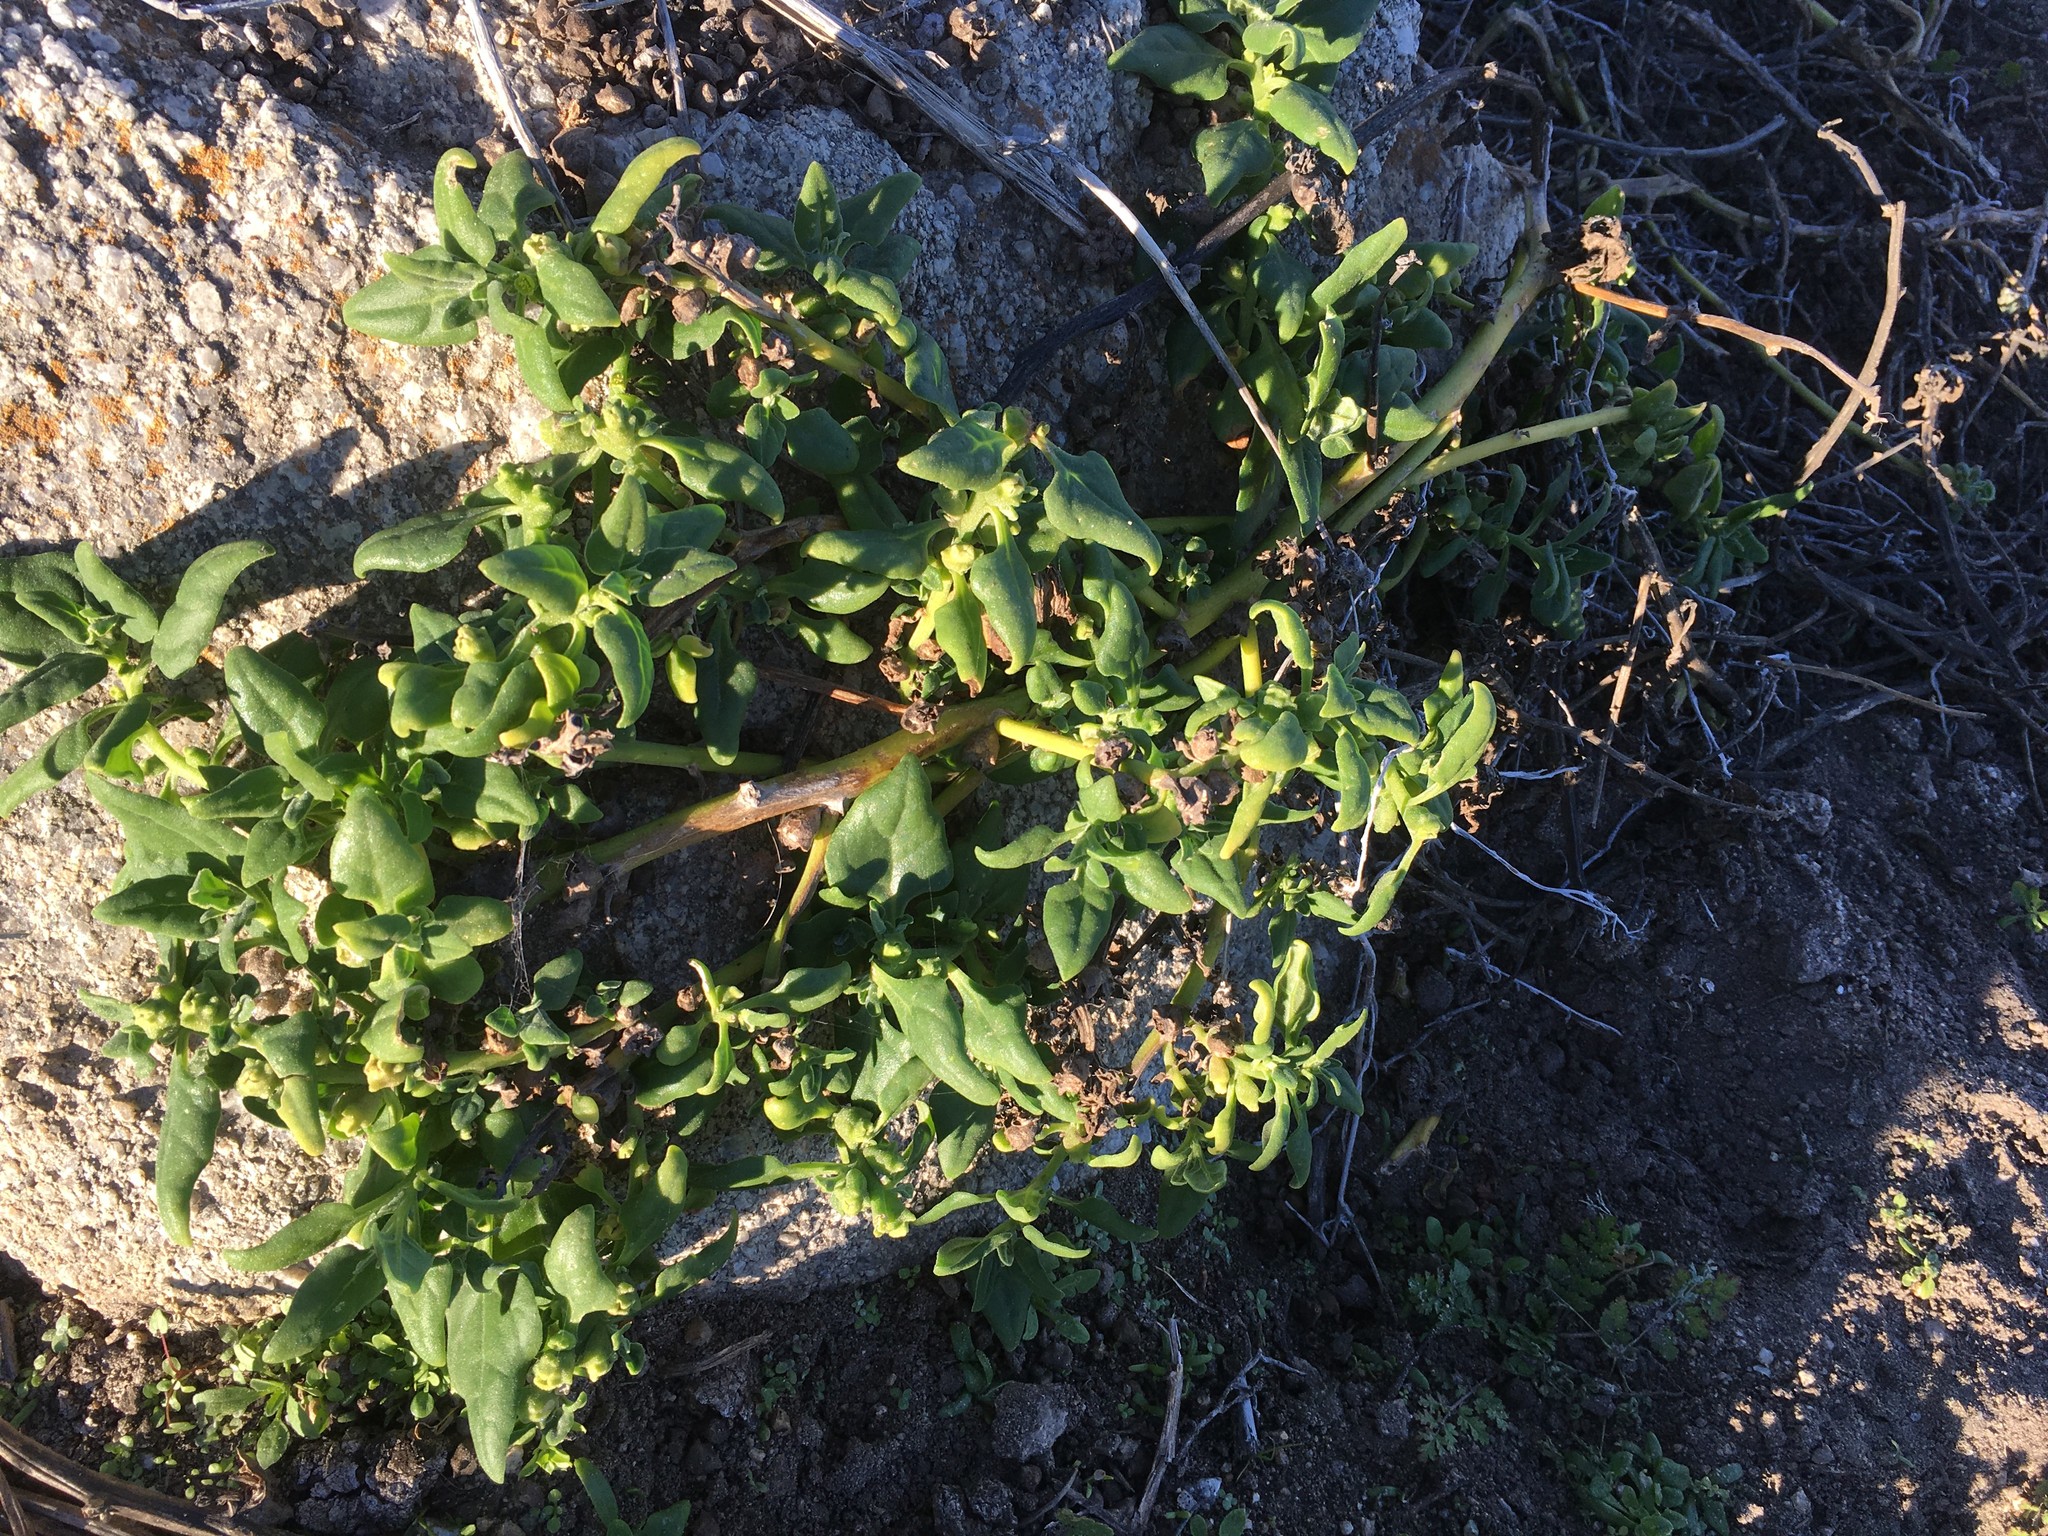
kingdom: Plantae
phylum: Tracheophyta
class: Magnoliopsida
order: Caryophyllales
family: Aizoaceae
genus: Tetragonia
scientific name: Tetragonia tetragonoides
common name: New zealand-spinach
